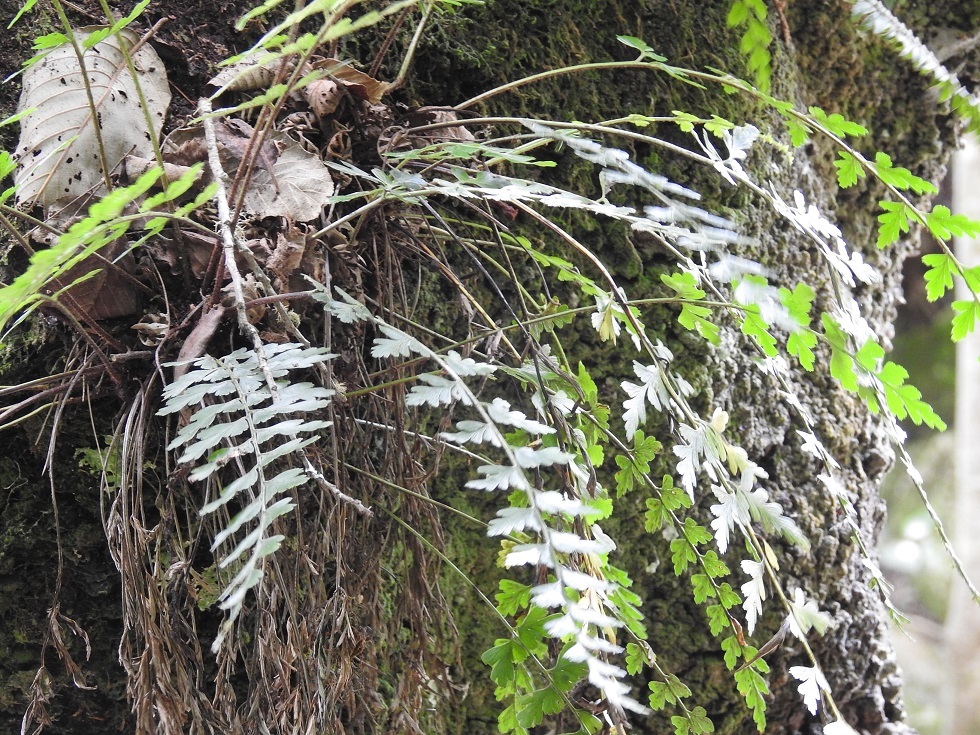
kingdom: Plantae
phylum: Tracheophyta
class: Polypodiopsida
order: Polypodiales
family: Aspleniaceae
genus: Asplenium
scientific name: Asplenium praemorsum
